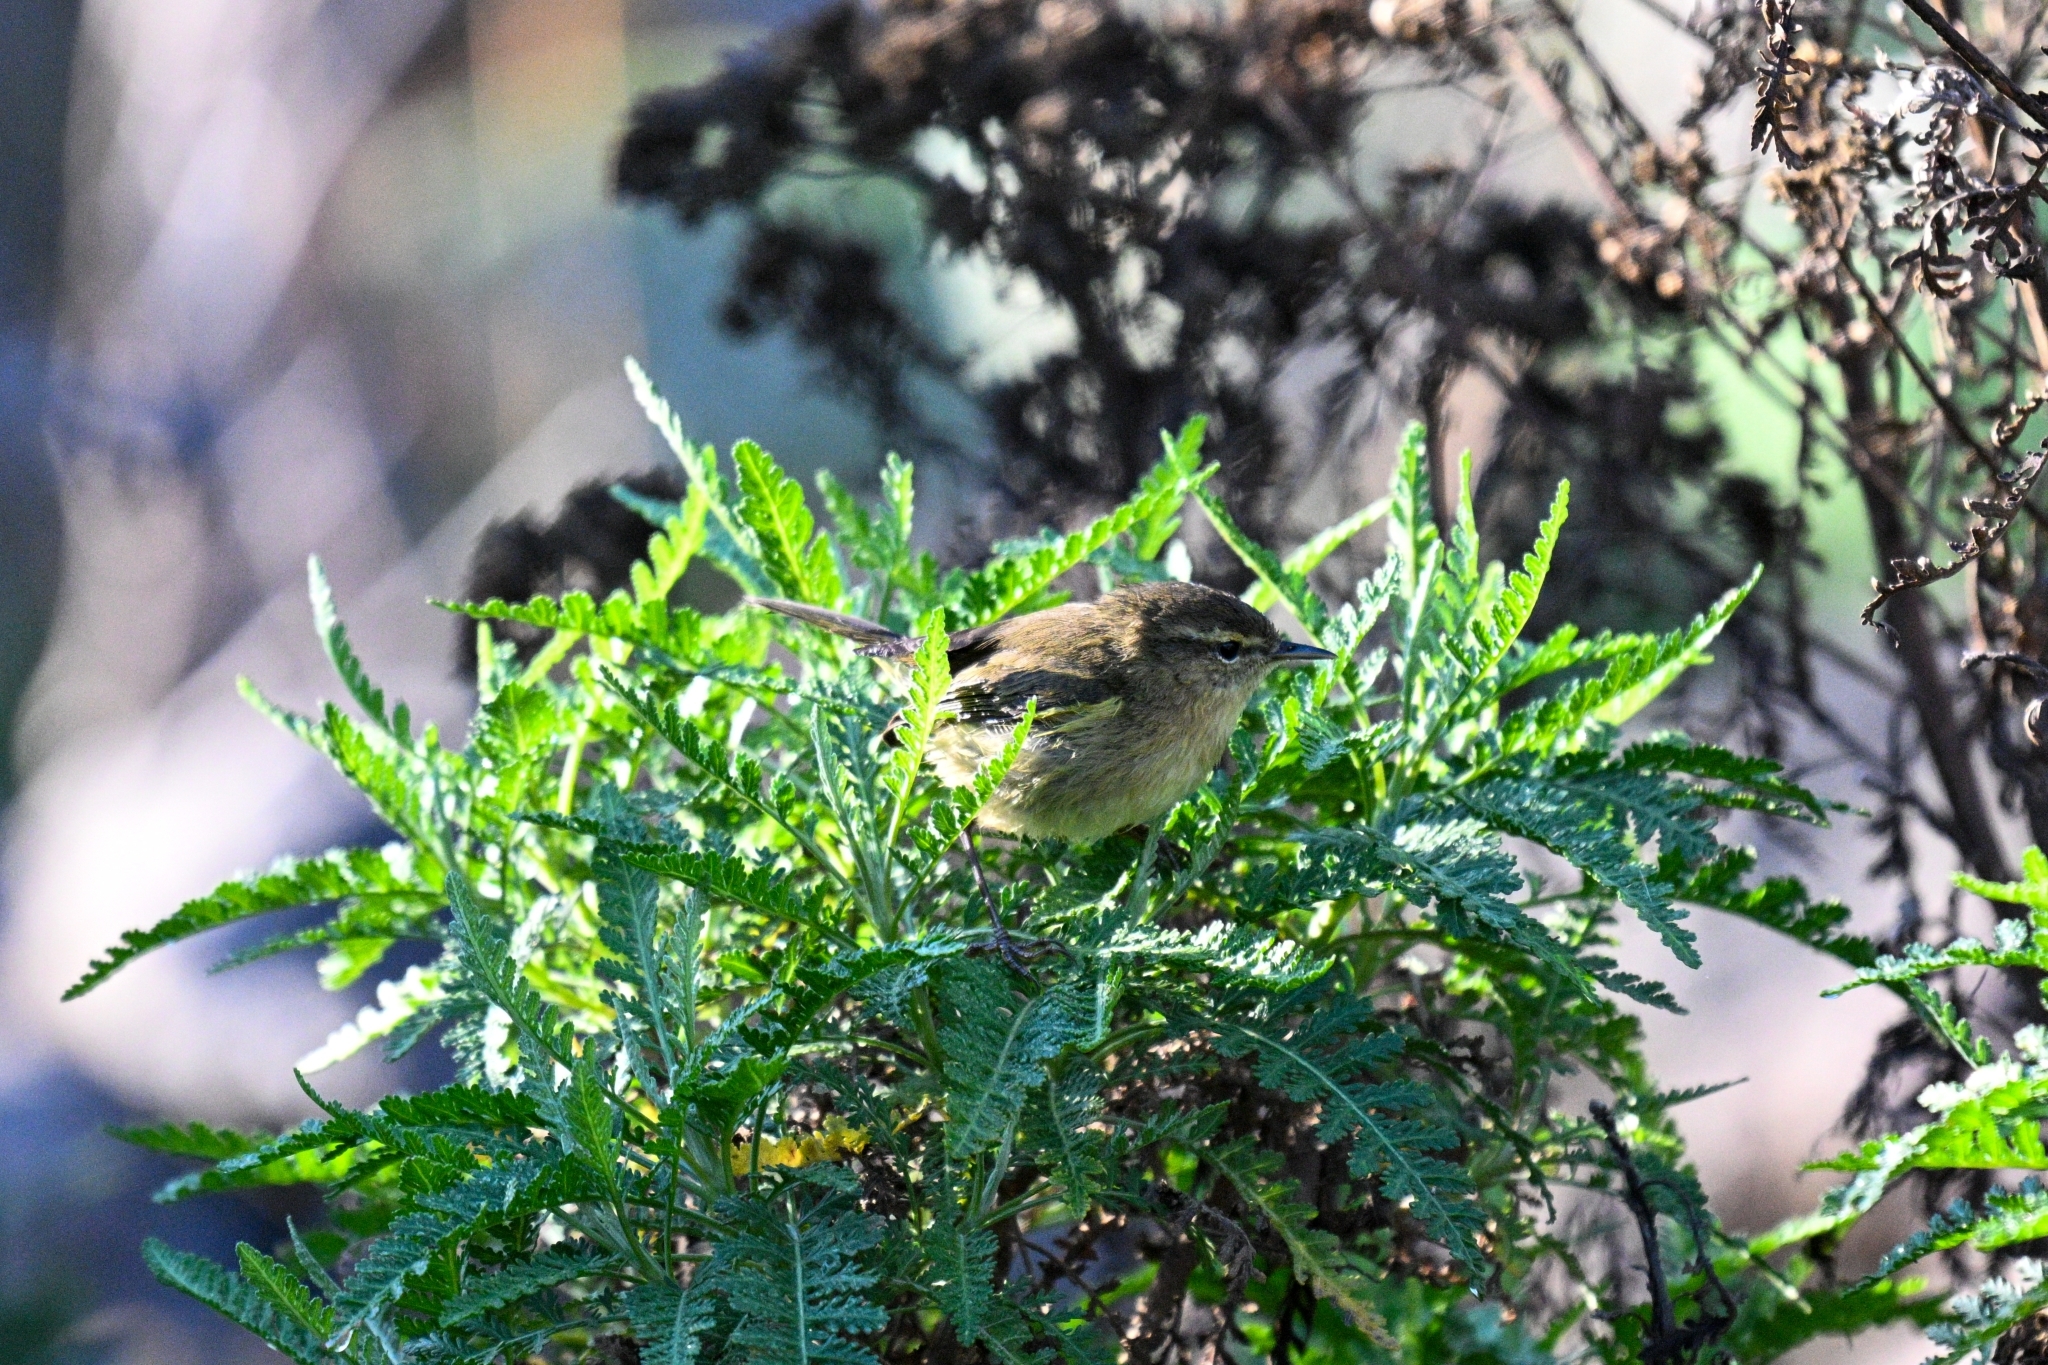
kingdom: Animalia
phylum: Chordata
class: Aves
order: Passeriformes
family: Phylloscopidae
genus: Phylloscopus
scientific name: Phylloscopus canariensis
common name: Canary islands chiffchaff
